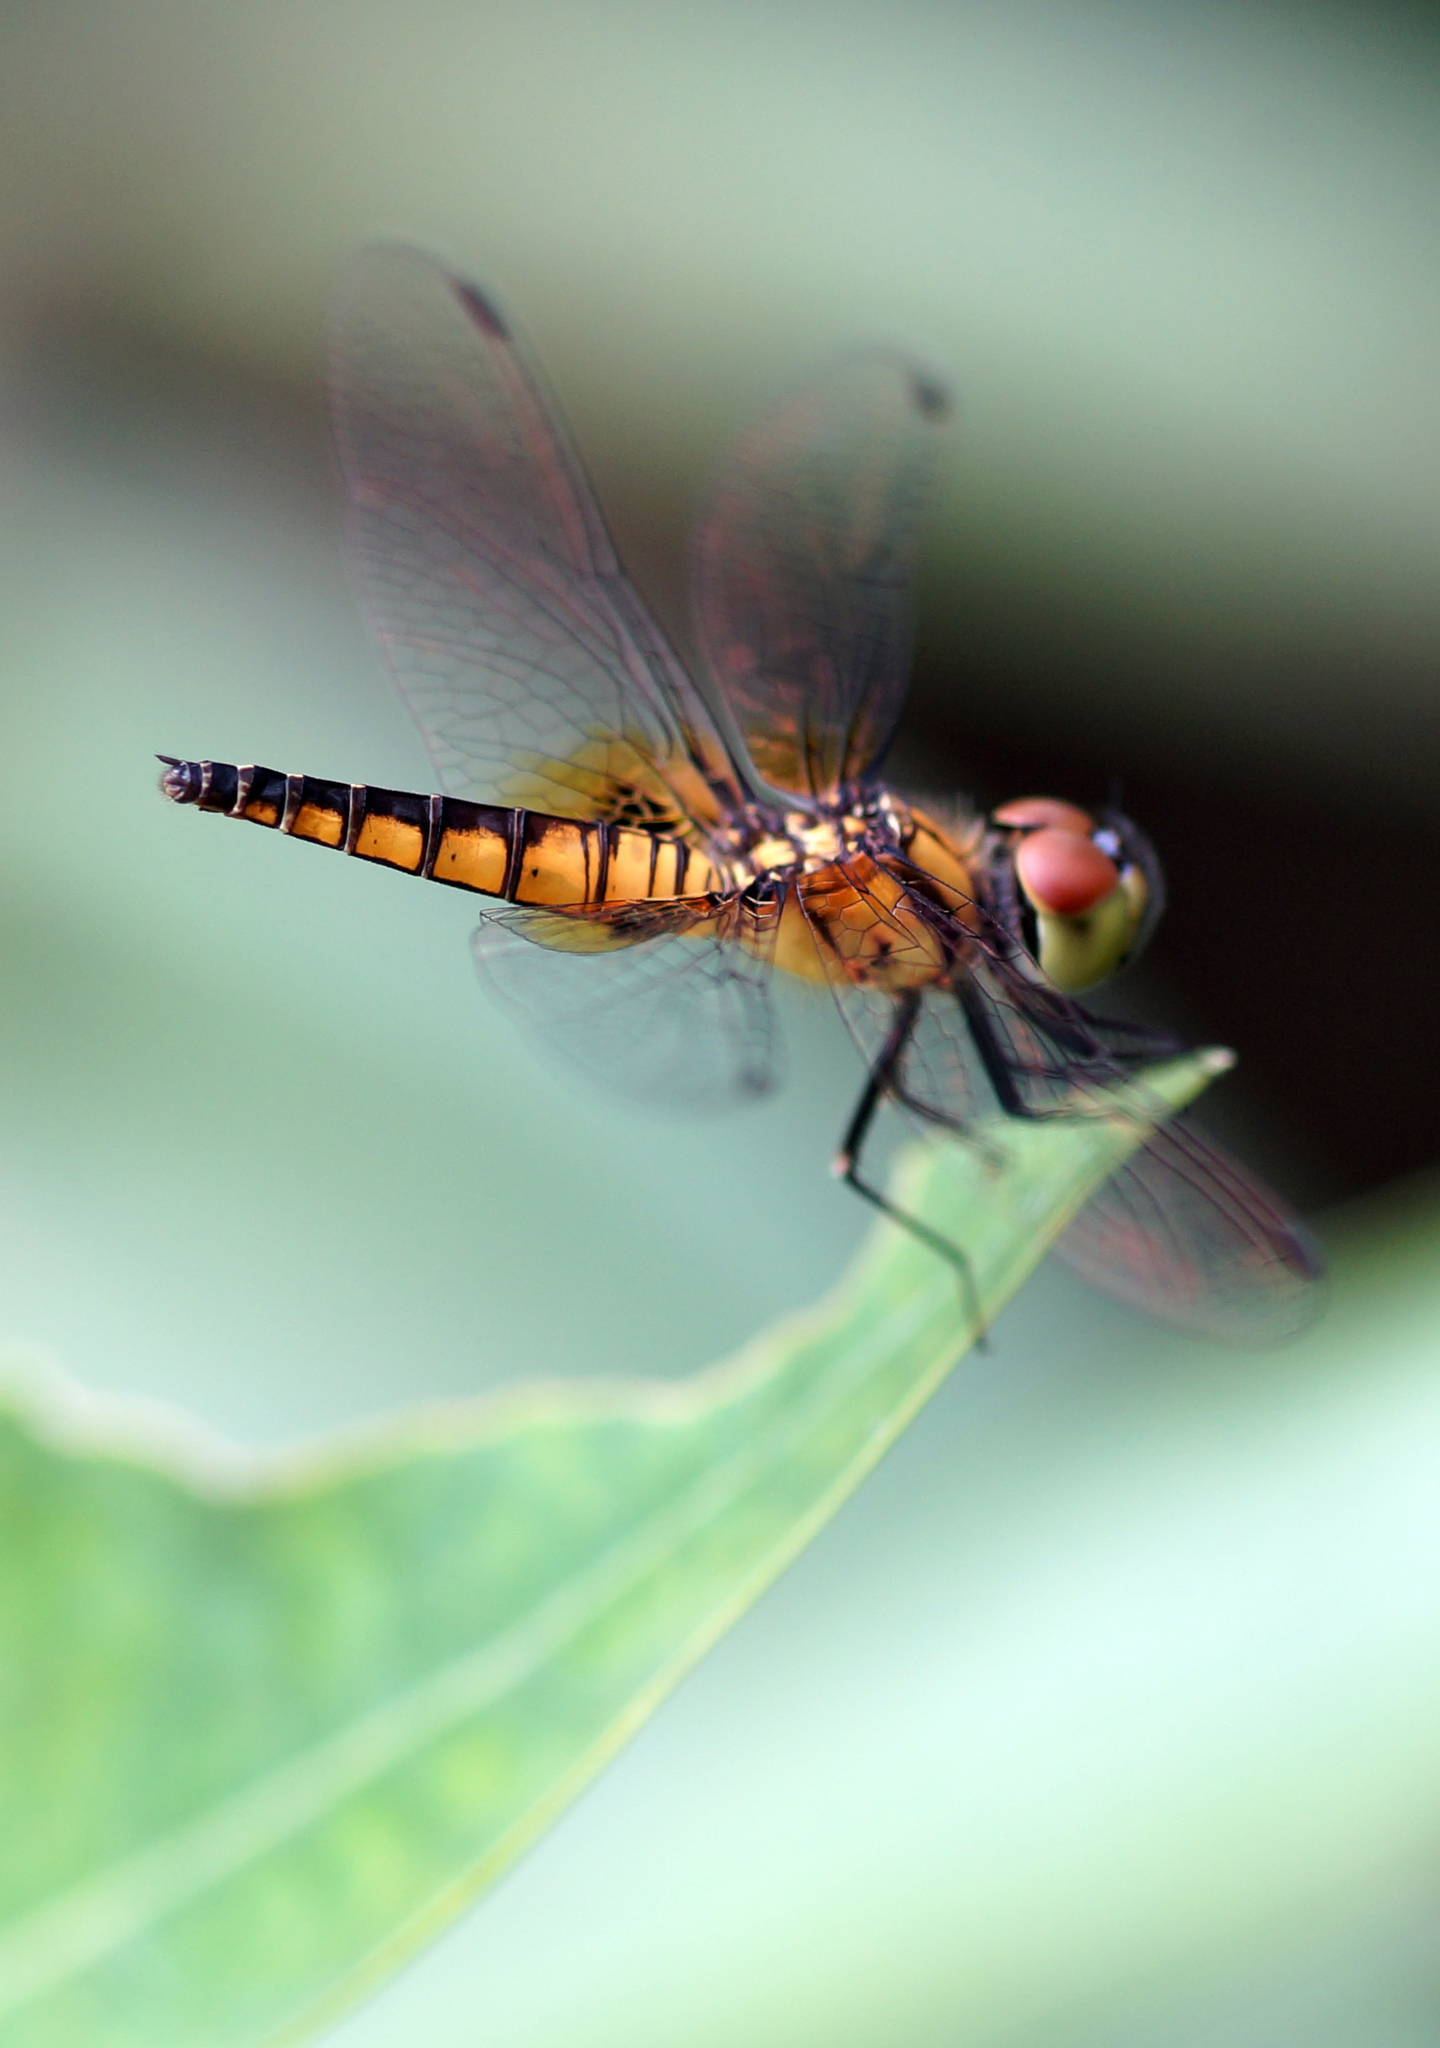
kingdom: Animalia
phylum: Arthropoda
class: Insecta
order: Odonata
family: Libellulidae
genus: Aethriamanta
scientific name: Aethriamanta brevipennis
